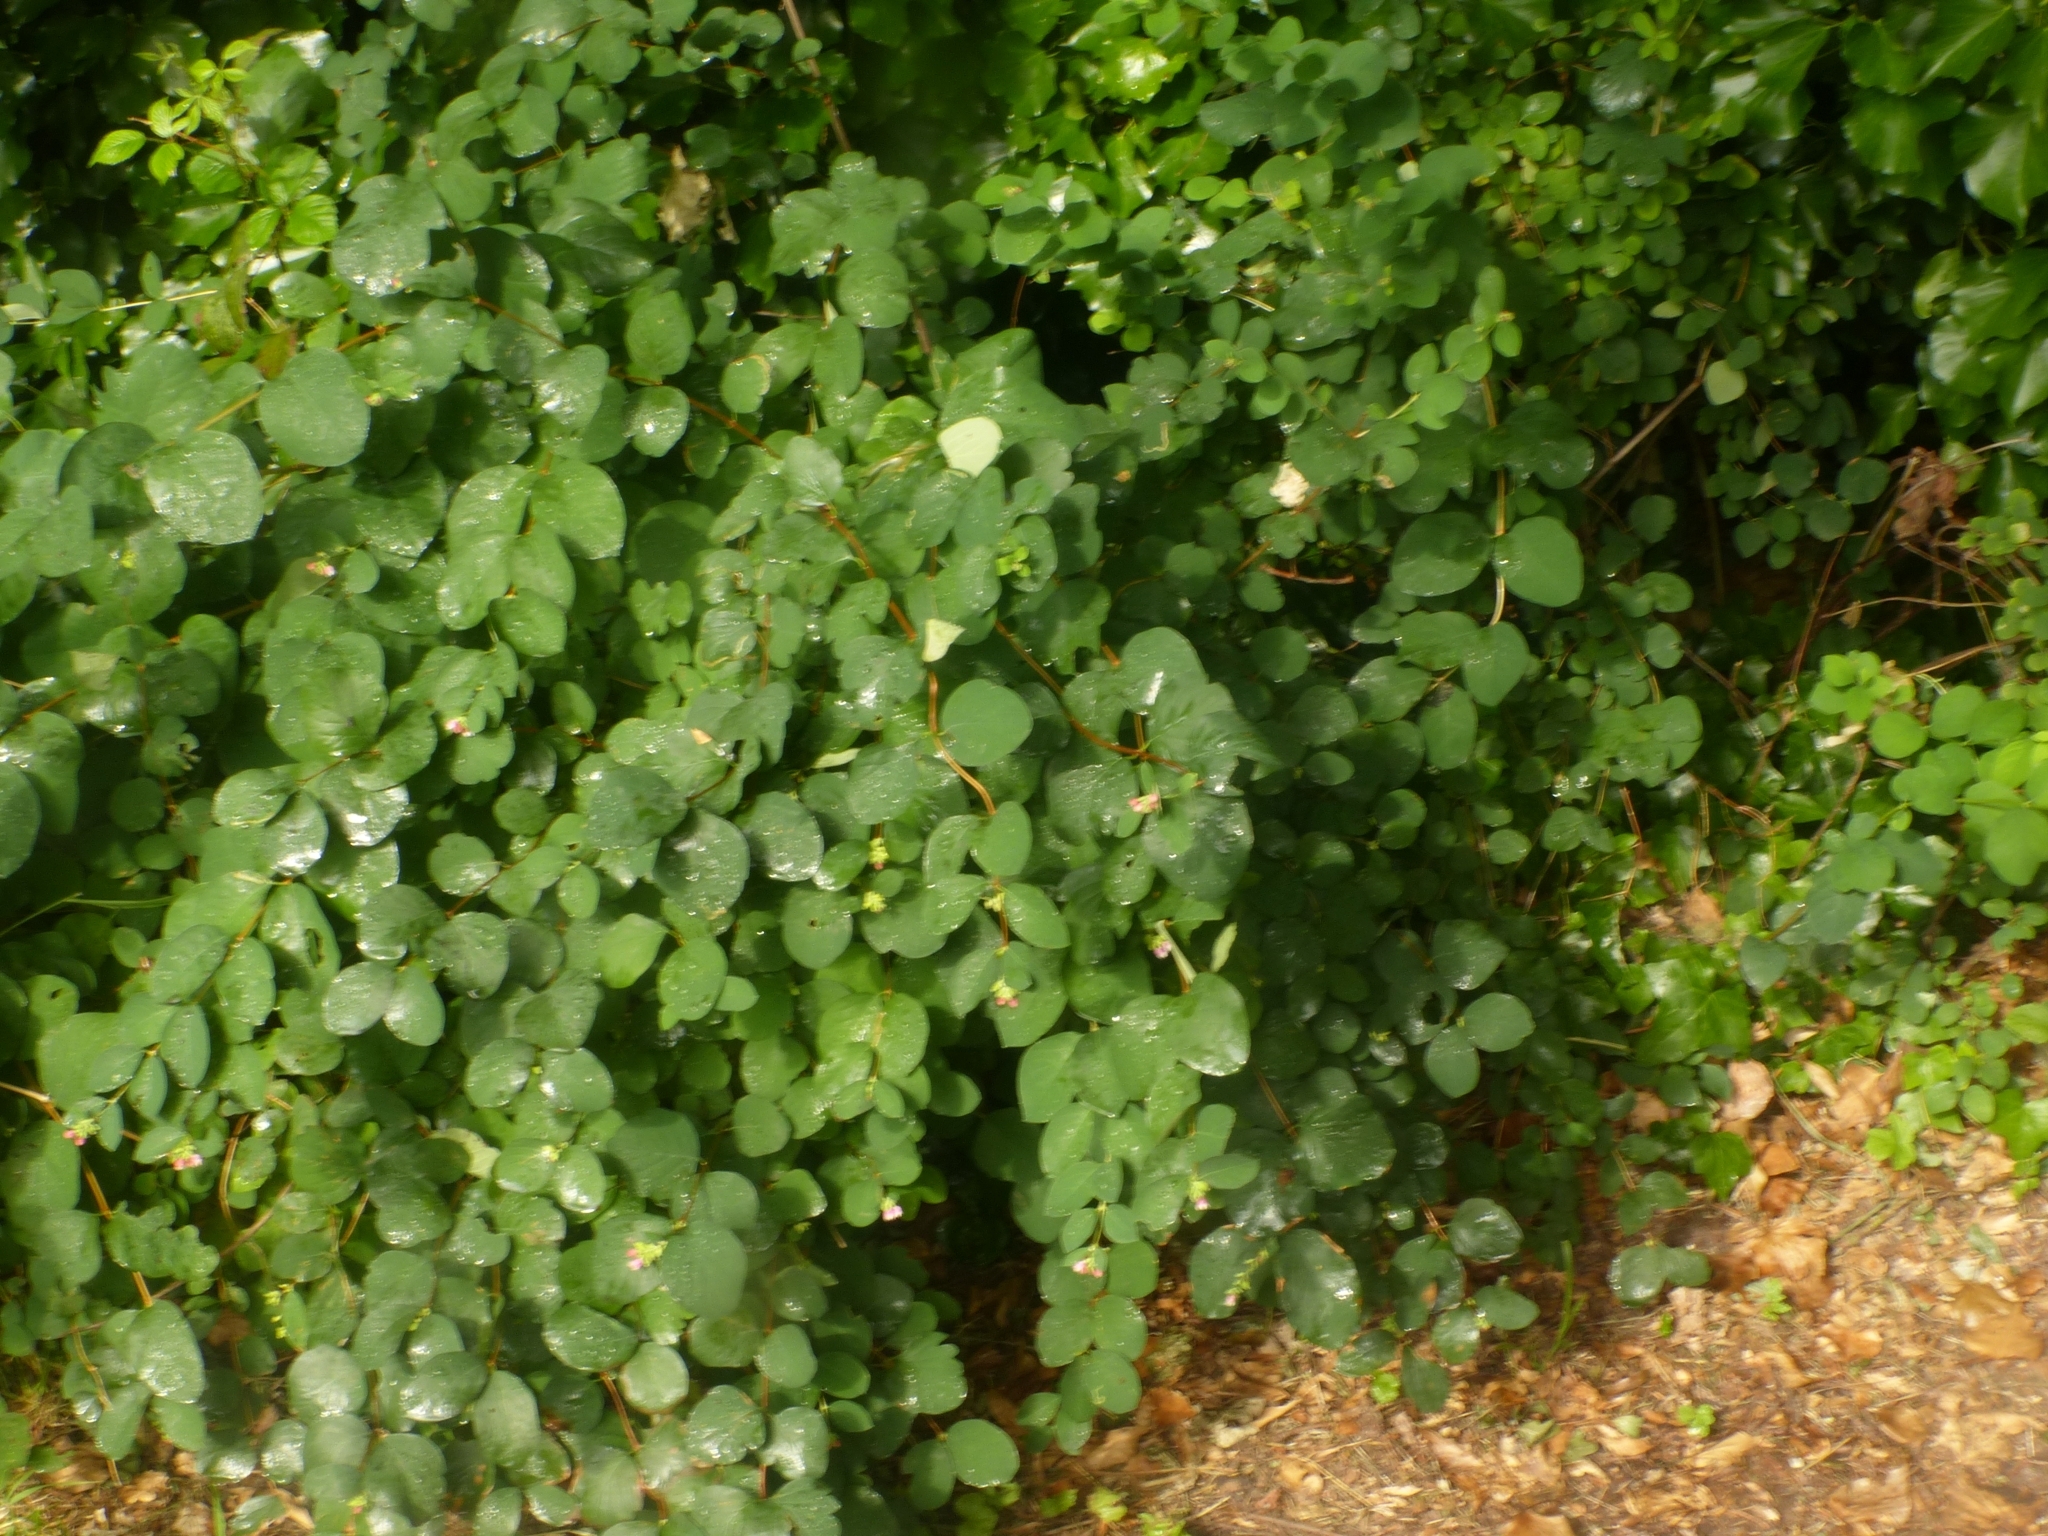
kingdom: Plantae
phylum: Tracheophyta
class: Magnoliopsida
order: Dipsacales
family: Caprifoliaceae
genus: Symphoricarpos
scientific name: Symphoricarpos albus
